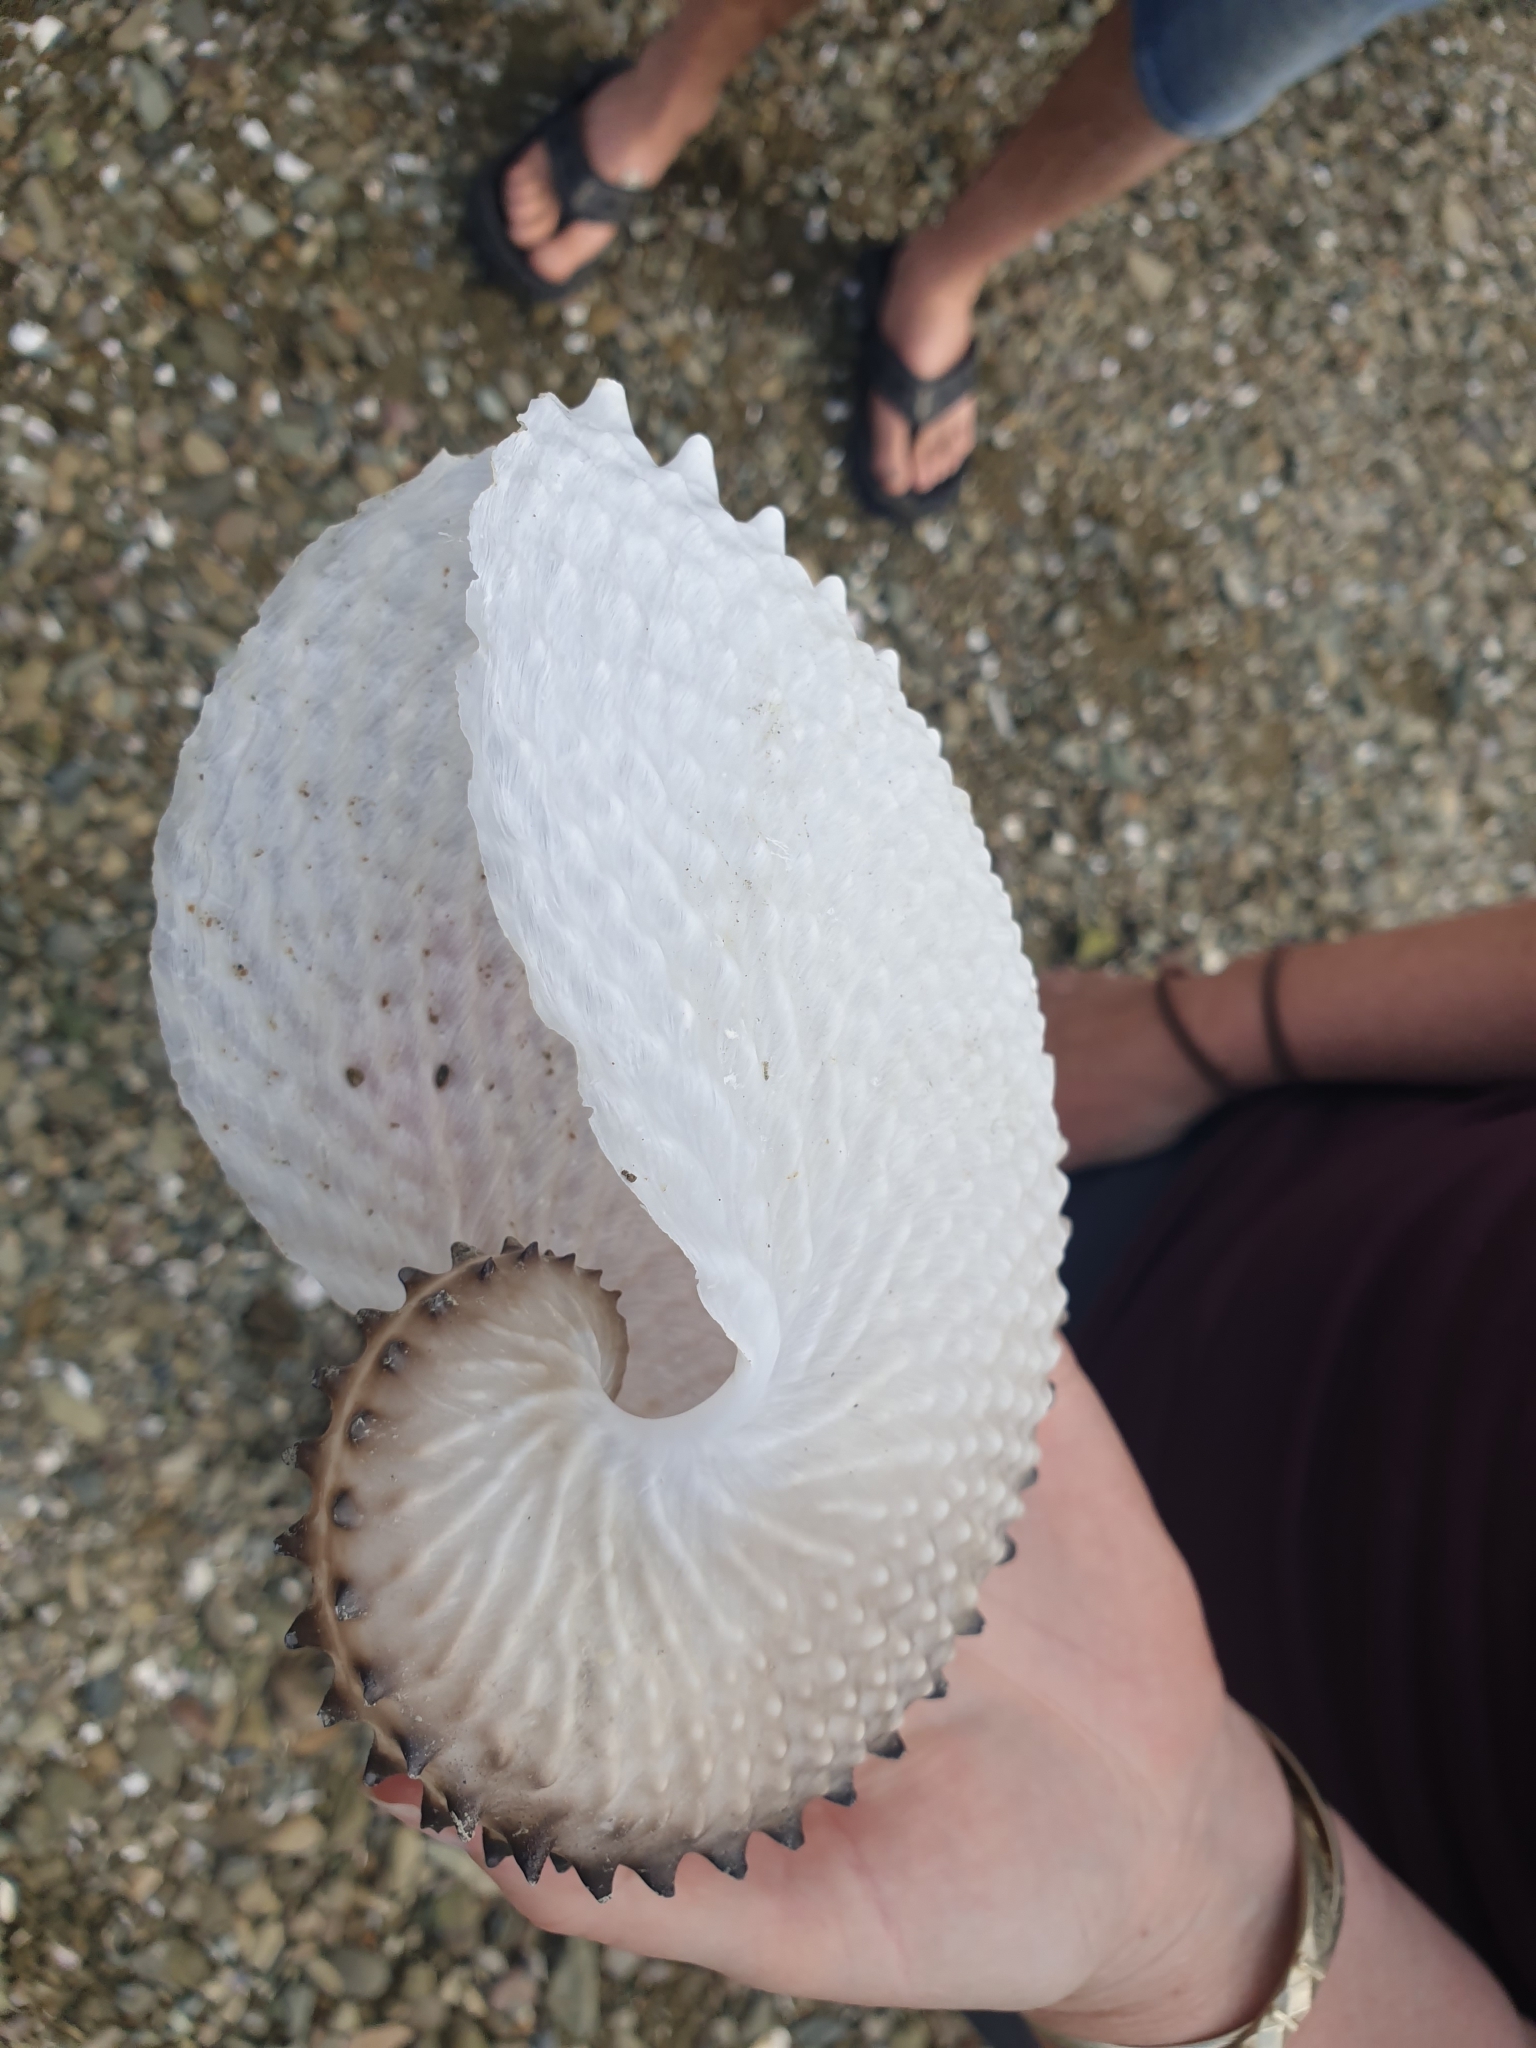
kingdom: Animalia
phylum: Mollusca
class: Cephalopoda
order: Octopoda
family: Argonautidae
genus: Argonauta
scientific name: Argonauta nodosus
